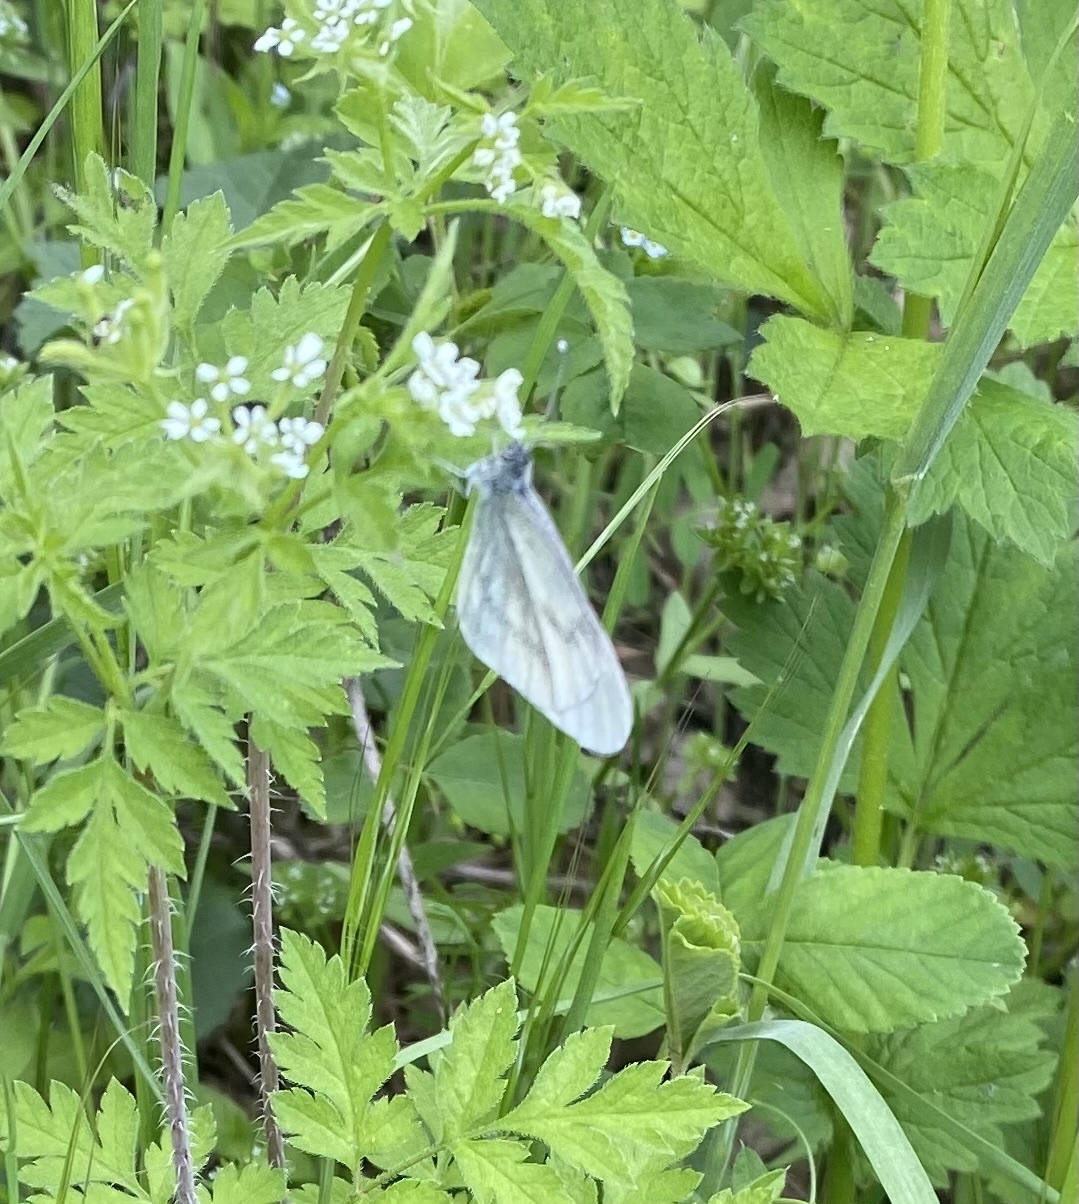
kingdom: Animalia
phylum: Arthropoda
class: Insecta
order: Lepidoptera
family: Pieridae
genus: Leptidea
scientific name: Leptidea
